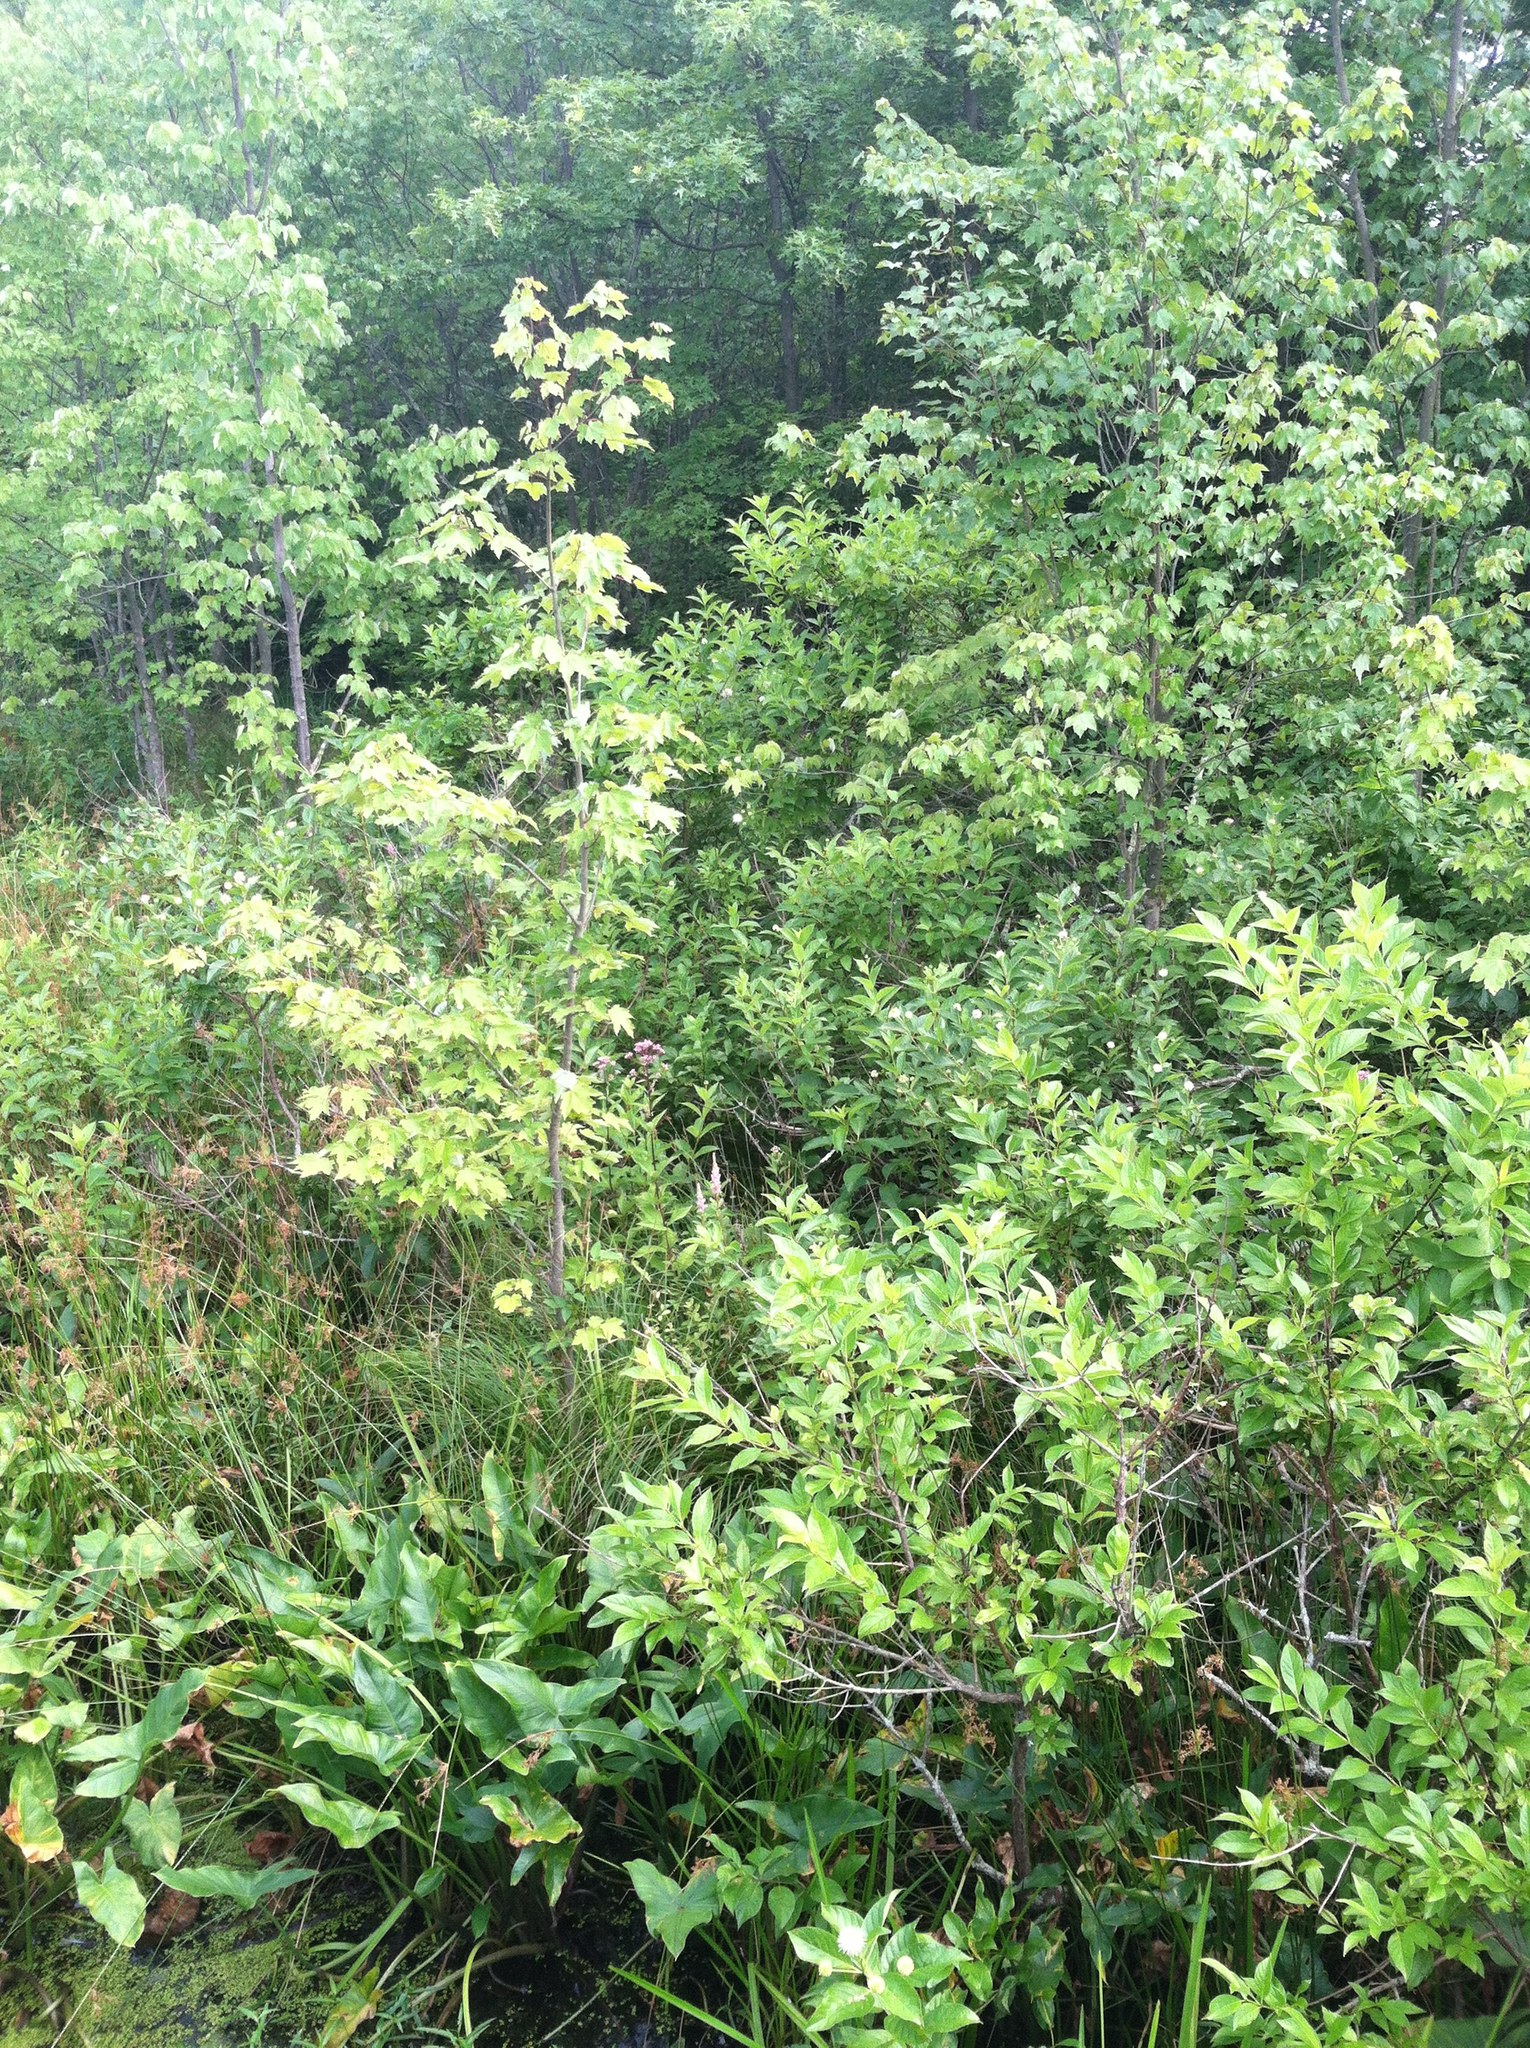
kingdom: Plantae
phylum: Tracheophyta
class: Magnoliopsida
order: Sapindales
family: Sapindaceae
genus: Acer
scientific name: Acer rubrum
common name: Red maple
